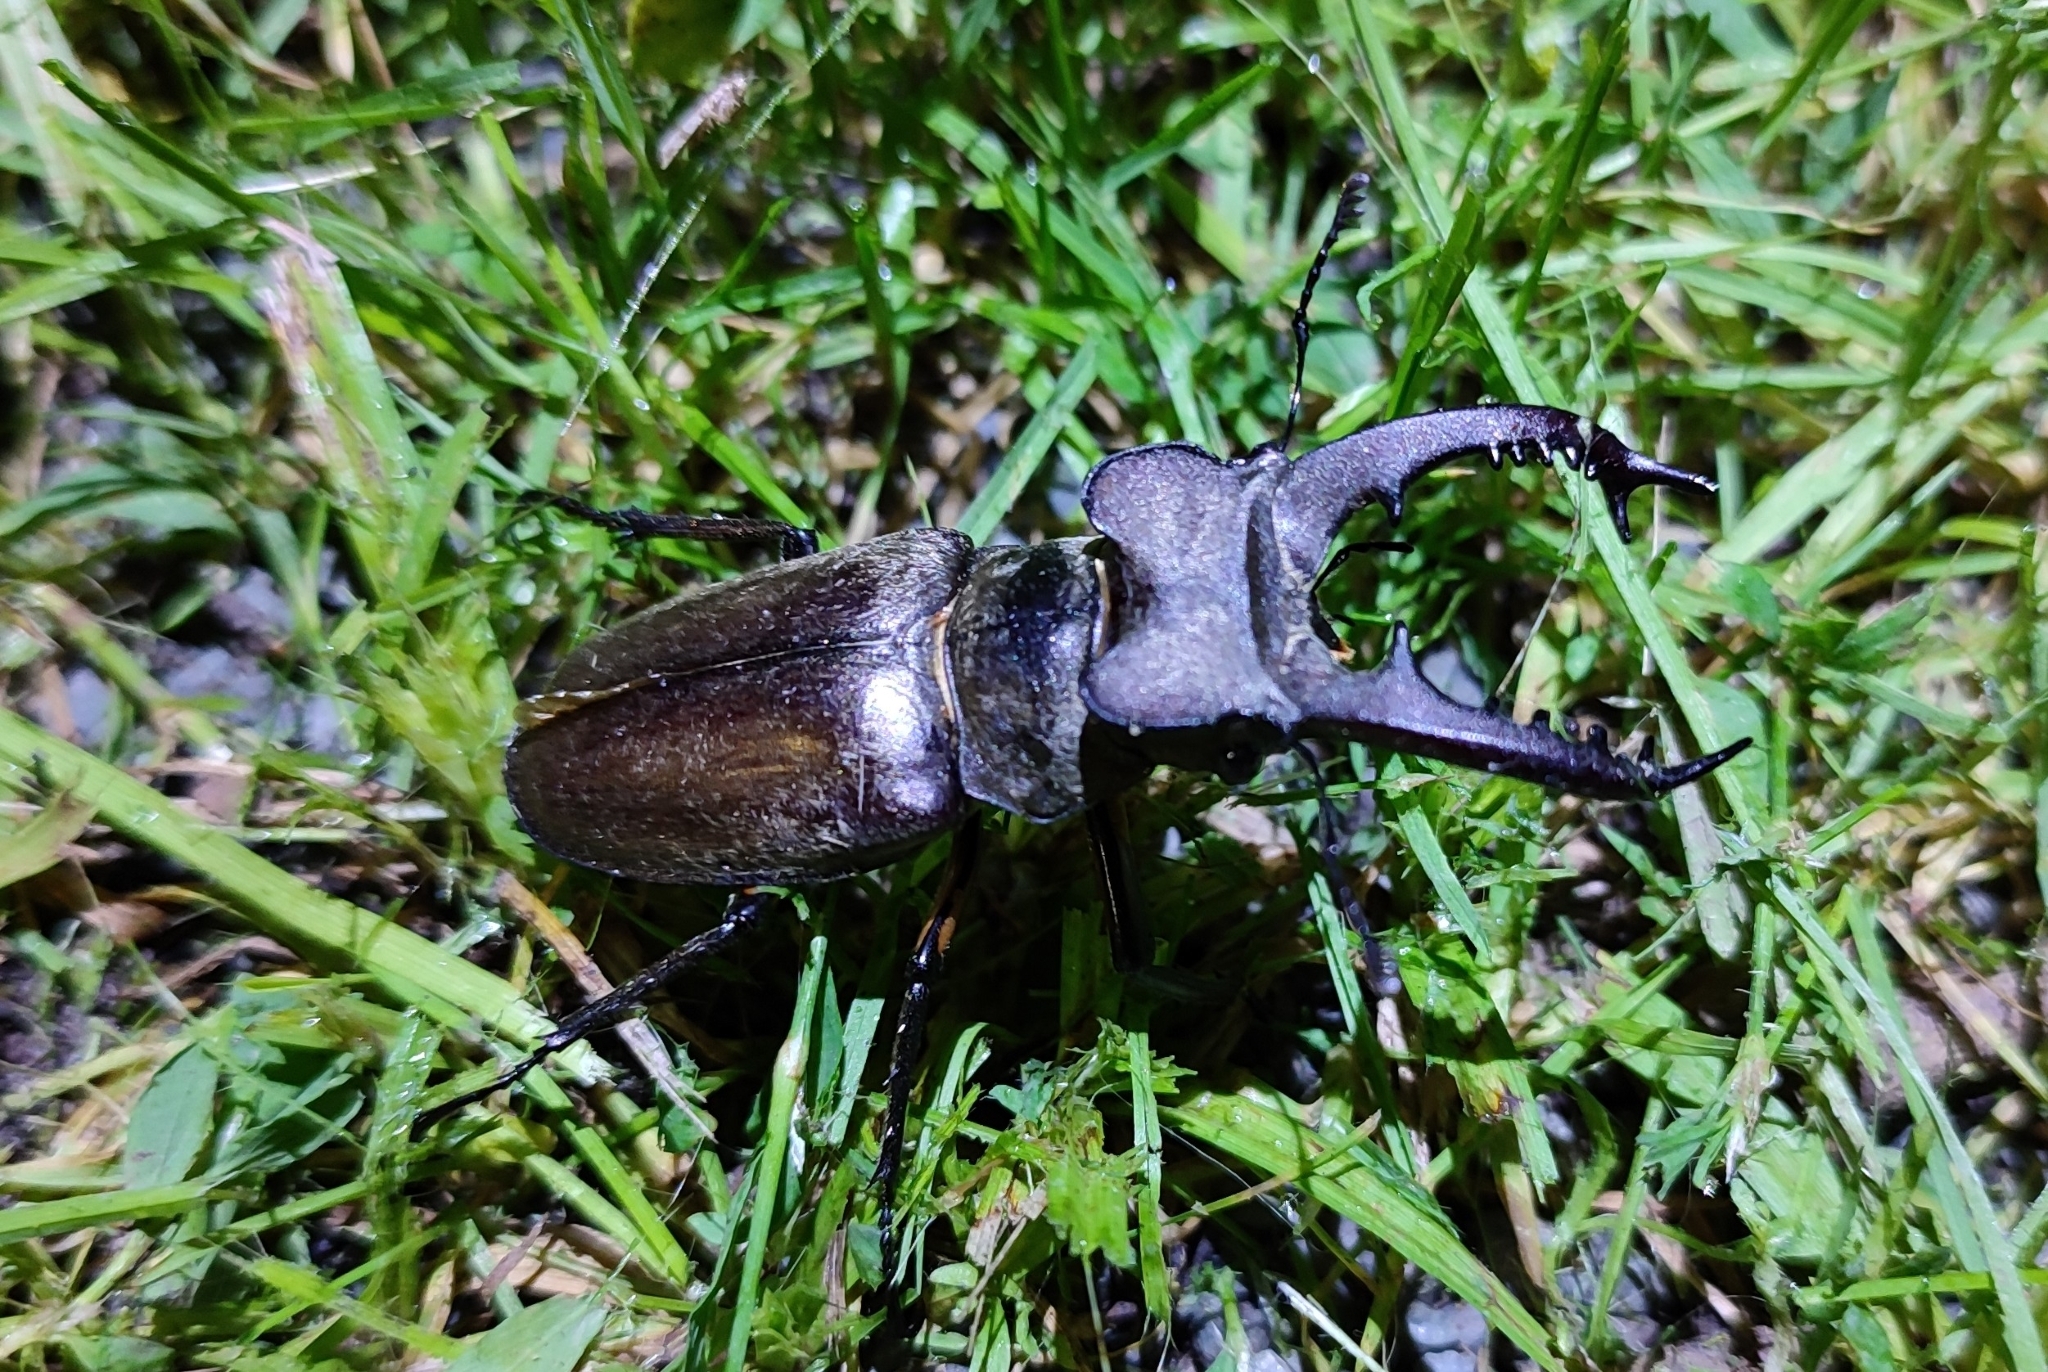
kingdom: Animalia
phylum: Arthropoda
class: Insecta
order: Coleoptera
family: Lucanidae
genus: Lucanus
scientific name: Lucanus maculifemoratus
